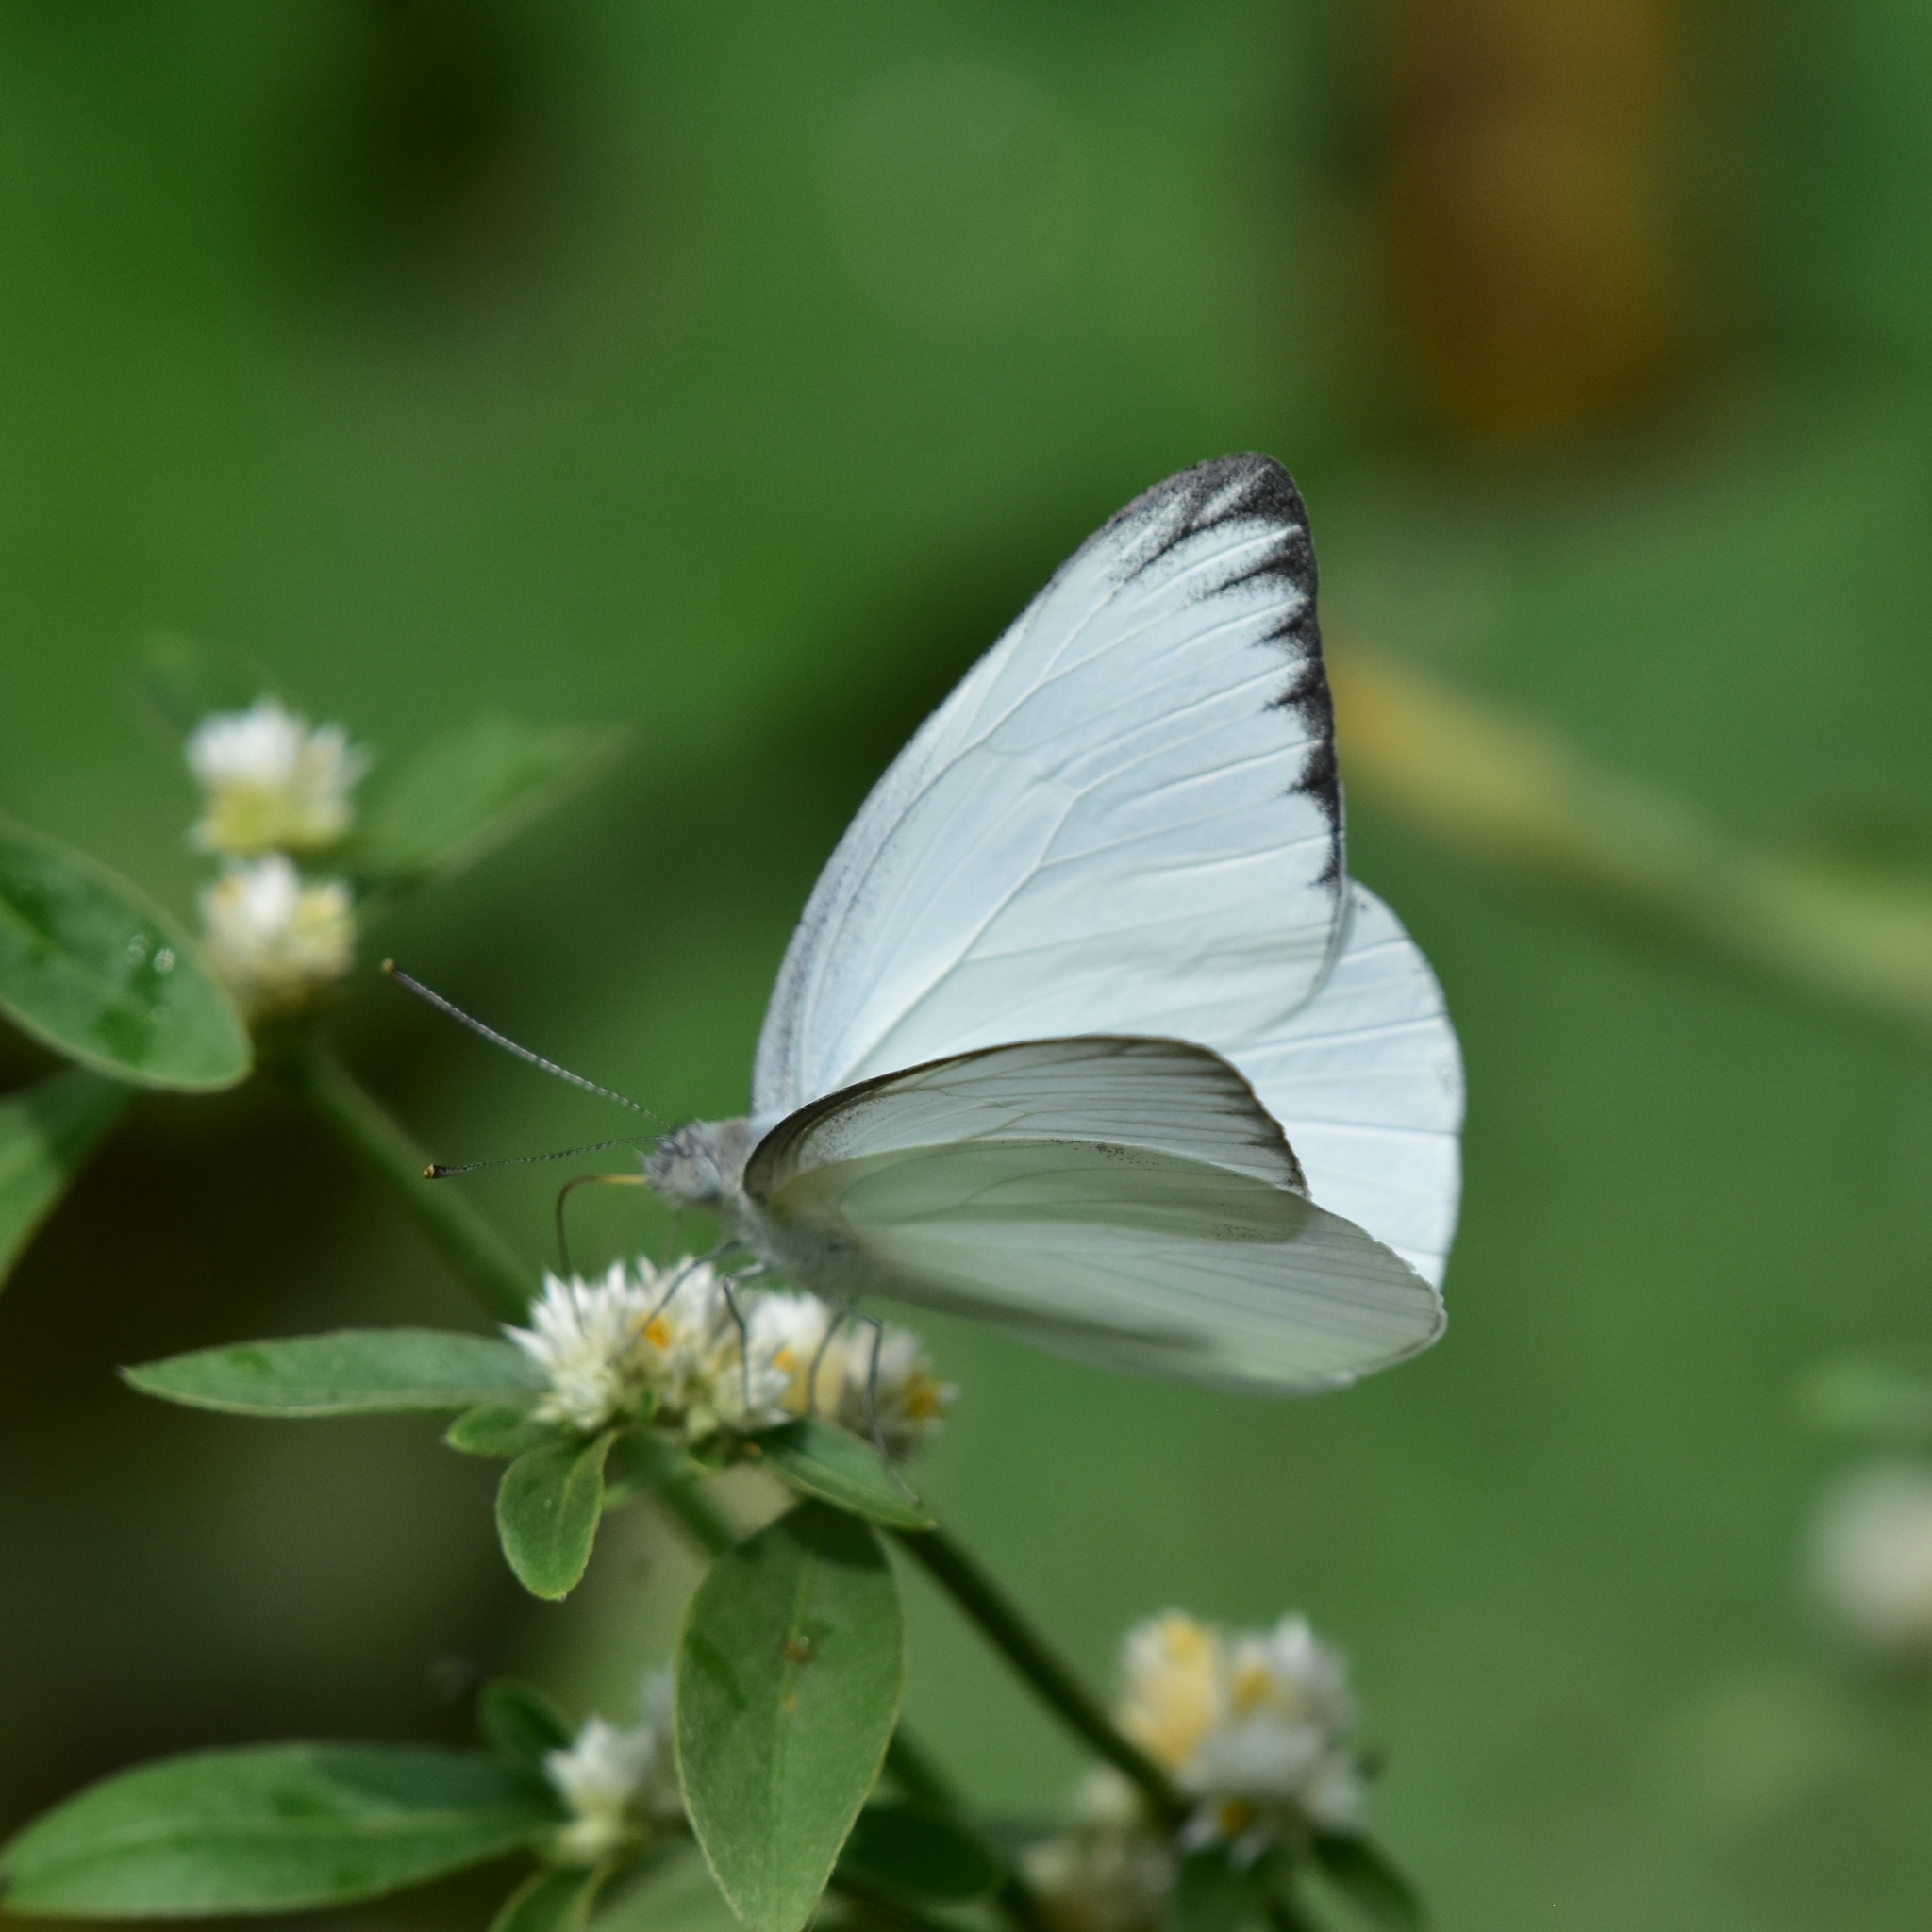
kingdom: Animalia
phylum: Arthropoda
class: Insecta
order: Lepidoptera
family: Pieridae
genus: Appias
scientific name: Appias libythea
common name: Striped albatross
